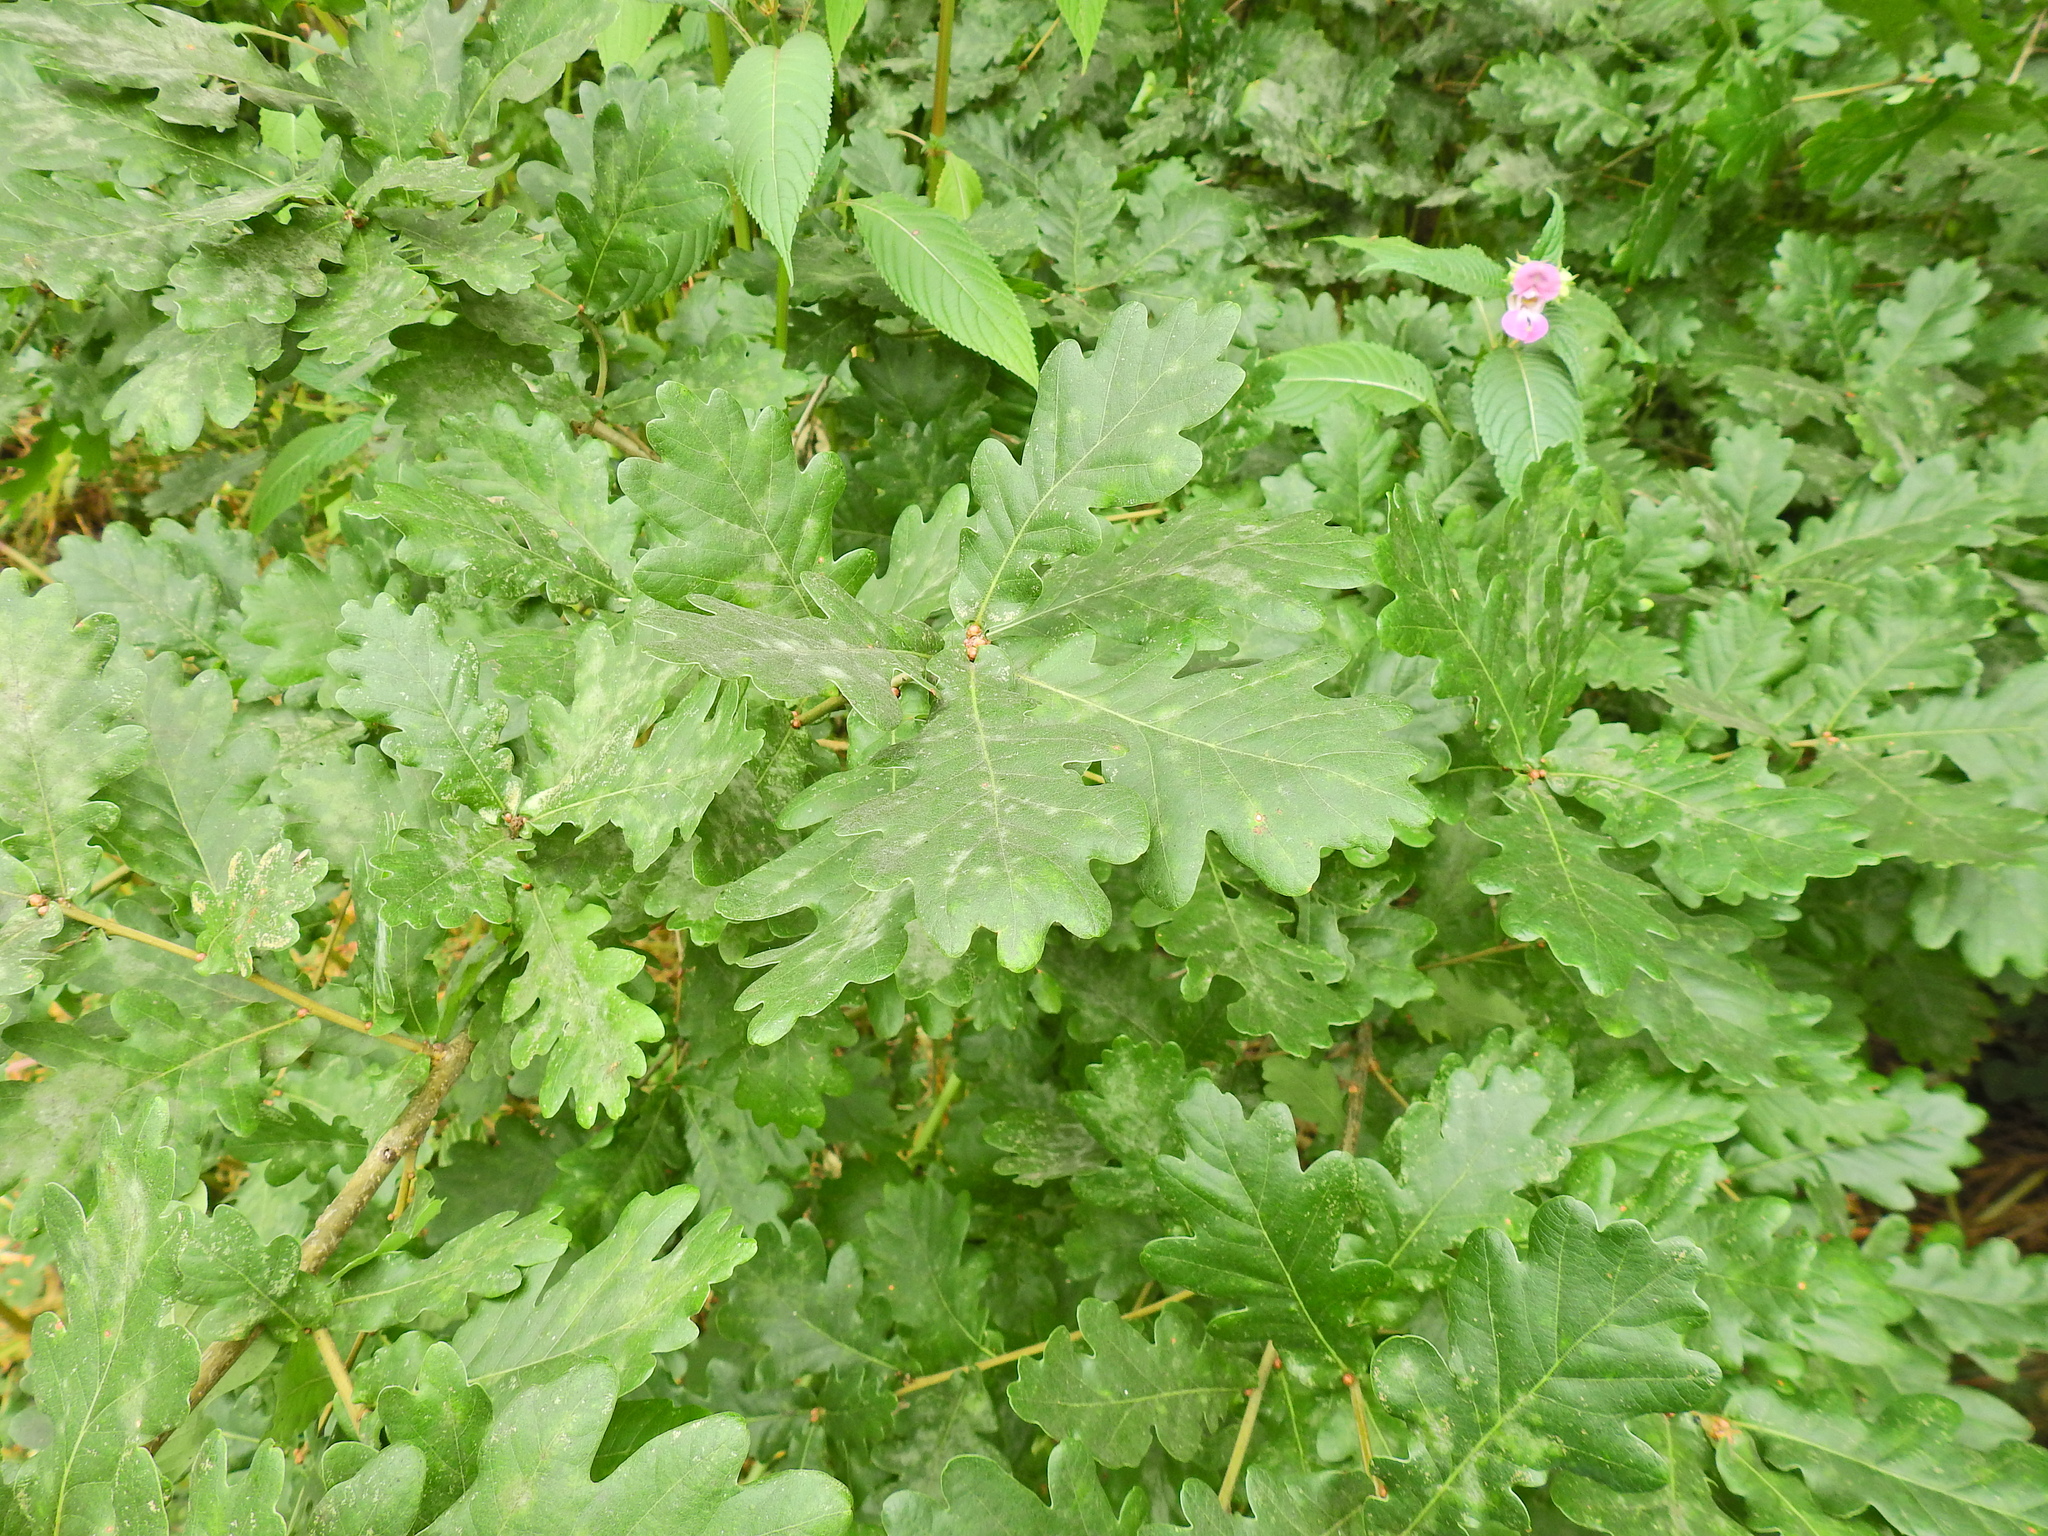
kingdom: Plantae
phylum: Tracheophyta
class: Magnoliopsida
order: Fagales
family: Fagaceae
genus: Quercus
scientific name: Quercus robur
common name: Pedunculate oak
